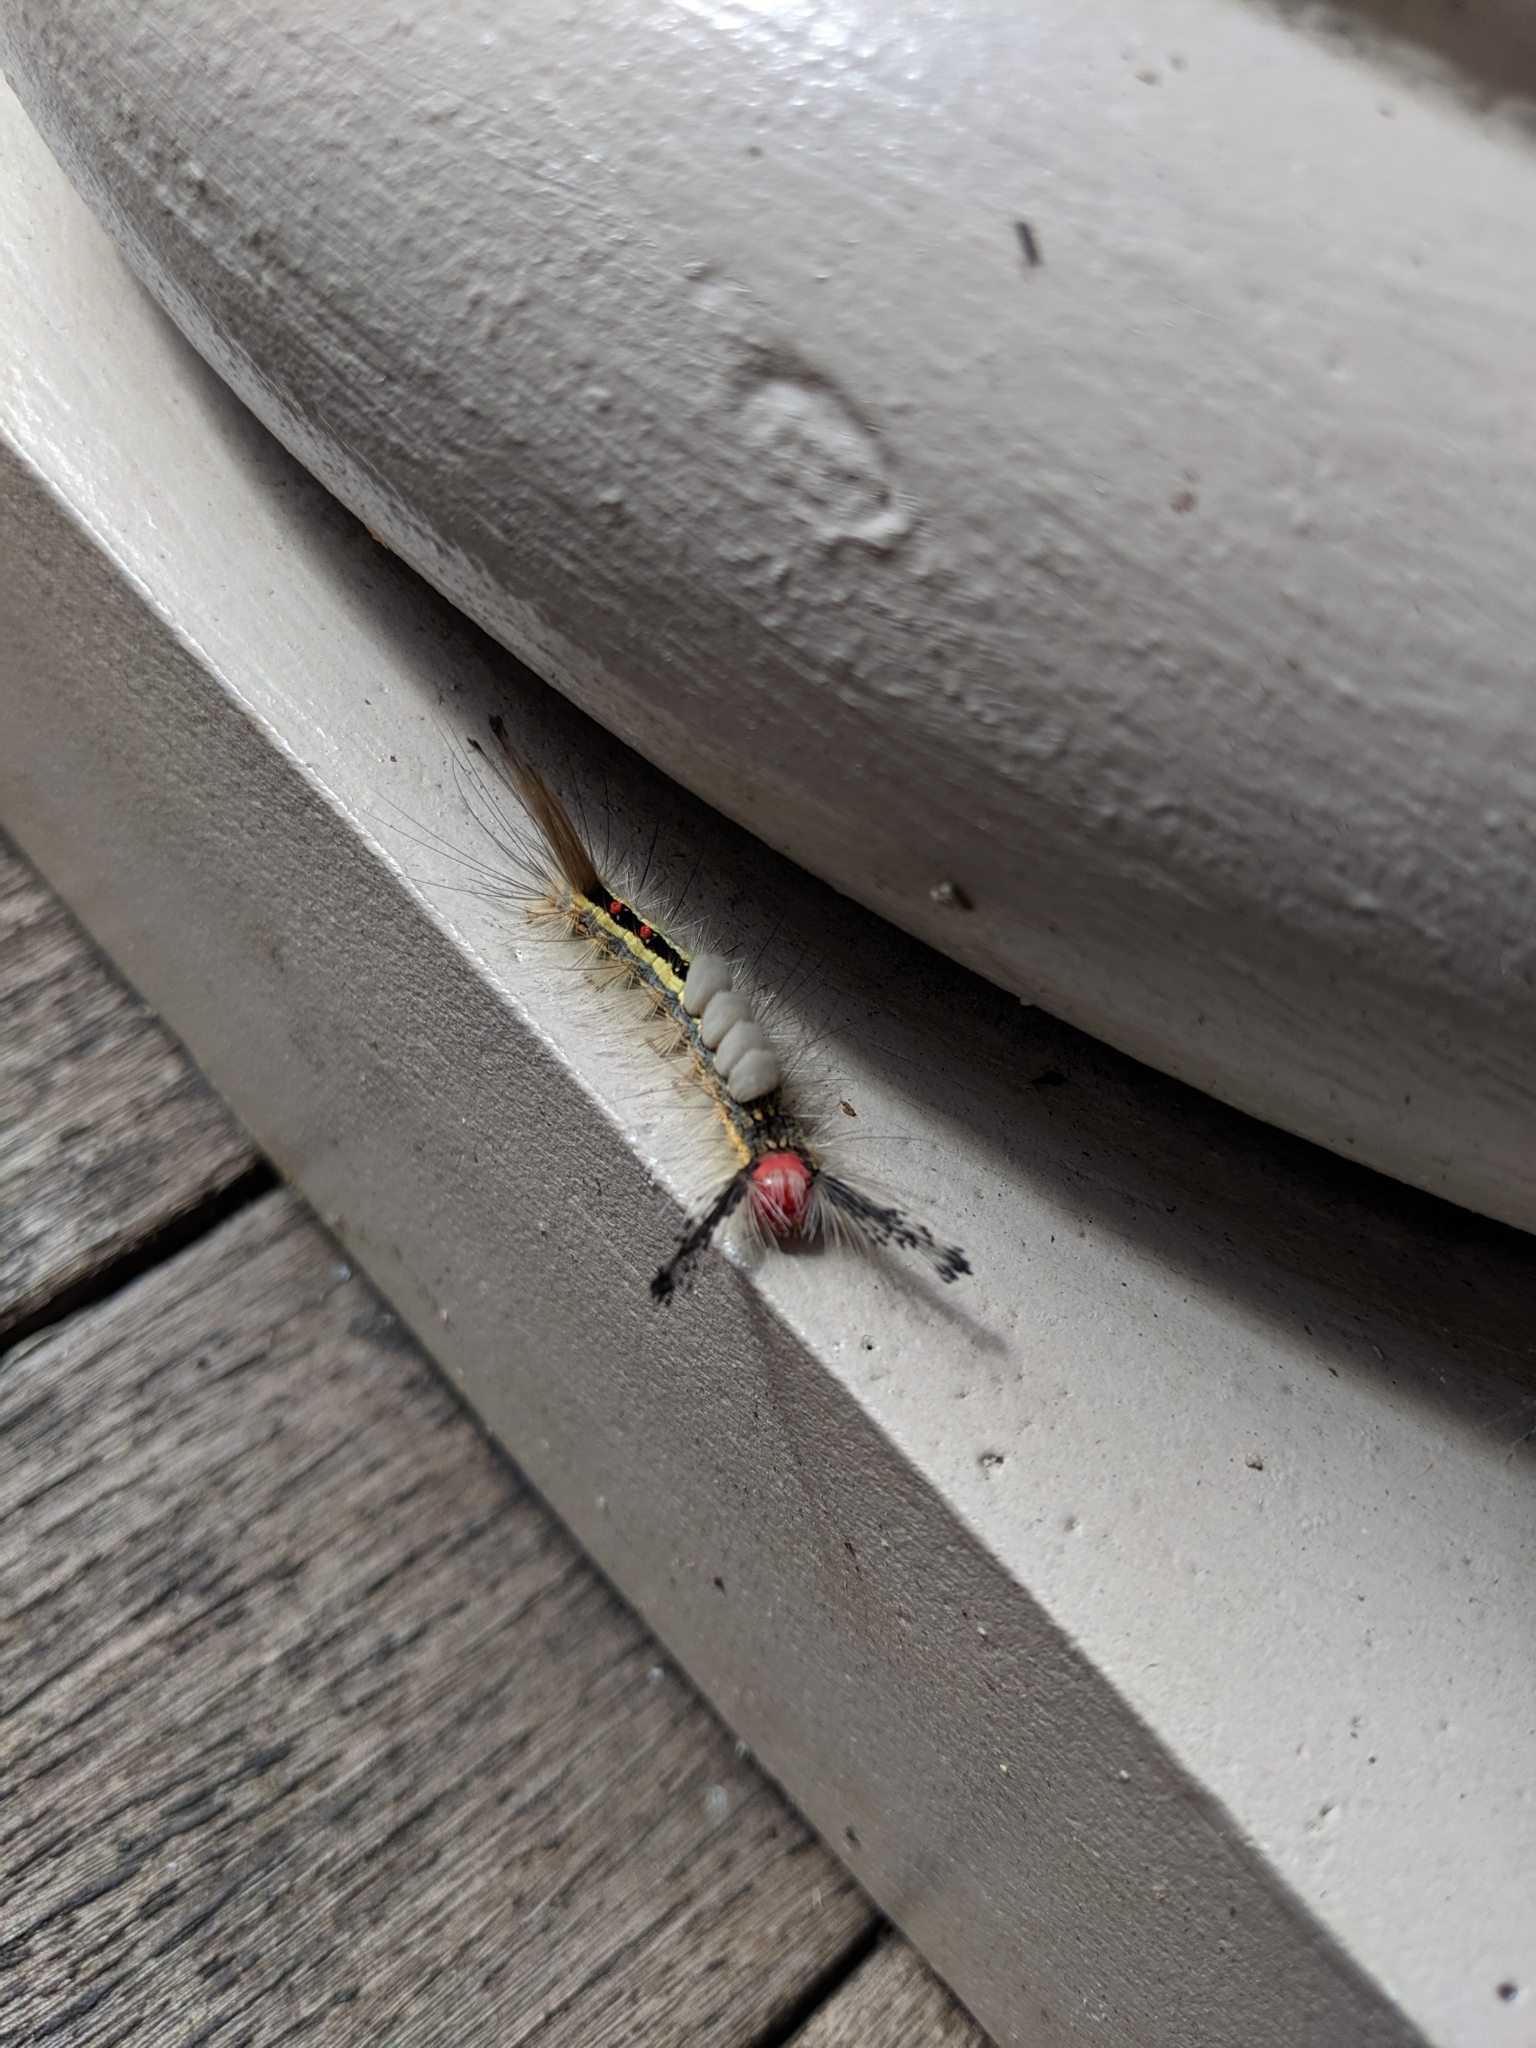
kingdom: Animalia
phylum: Arthropoda
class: Insecta
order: Lepidoptera
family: Erebidae
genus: Orgyia
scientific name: Orgyia leucostigma
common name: White-marked tussock moth
